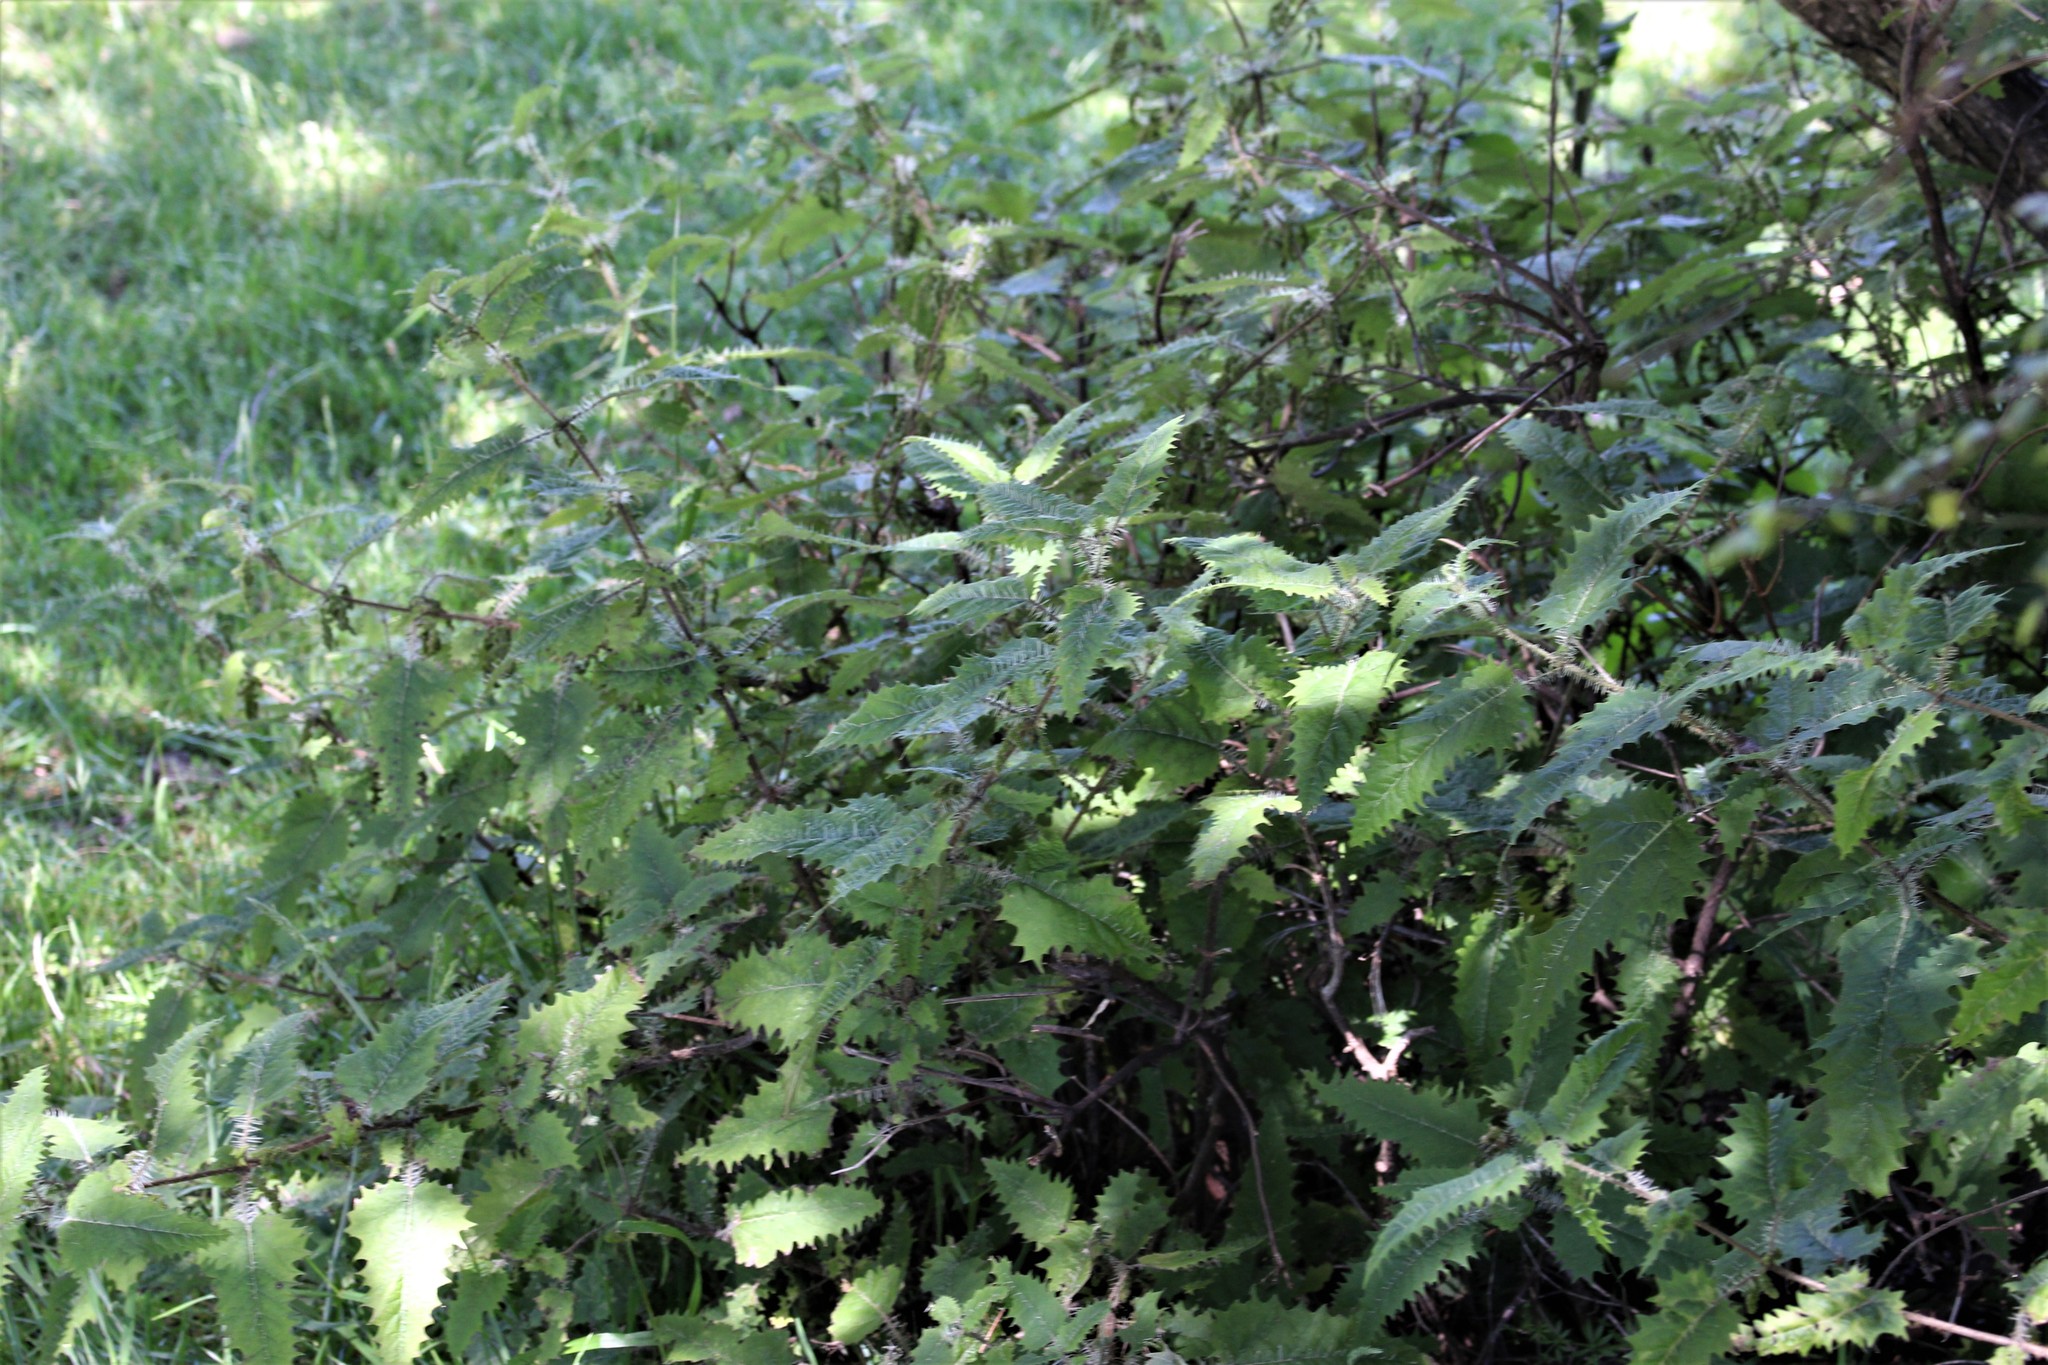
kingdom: Plantae
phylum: Tracheophyta
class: Magnoliopsida
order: Rosales
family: Urticaceae
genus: Urtica
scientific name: Urtica ferox
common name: Tree nettle
